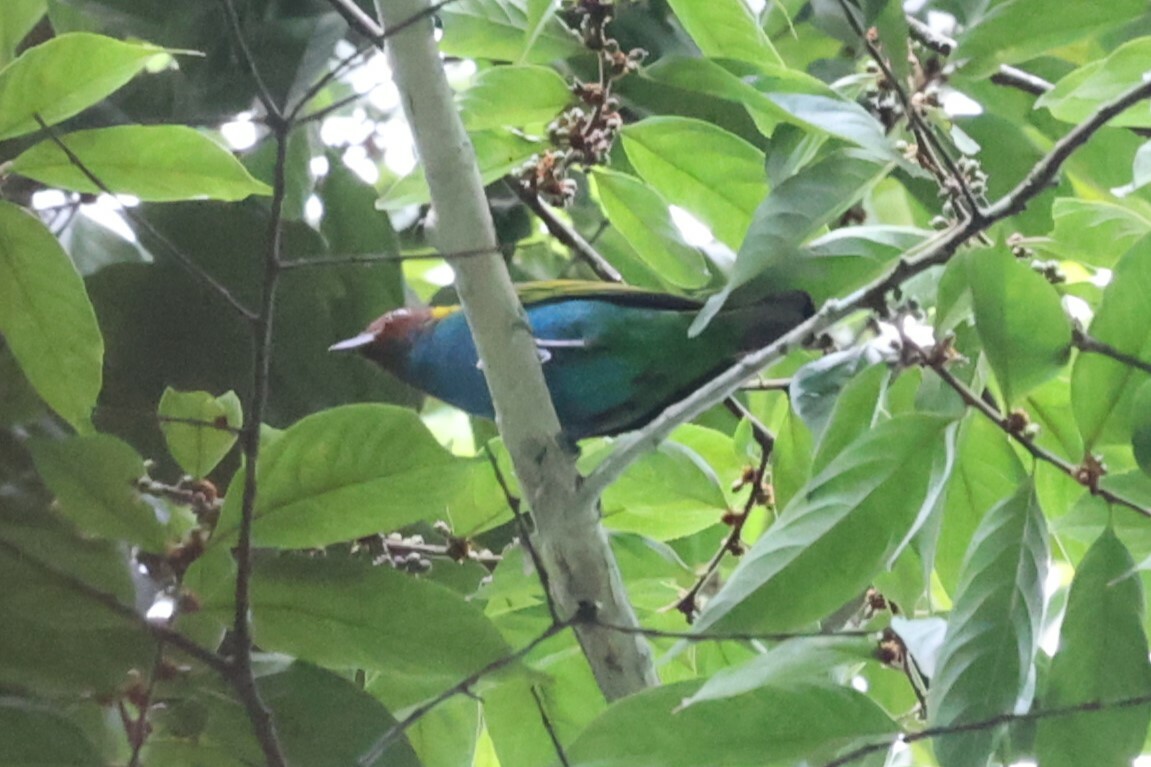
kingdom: Animalia
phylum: Chordata
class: Aves
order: Passeriformes
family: Thraupidae
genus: Tangara
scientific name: Tangara gyrola
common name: Bay-headed tanager
